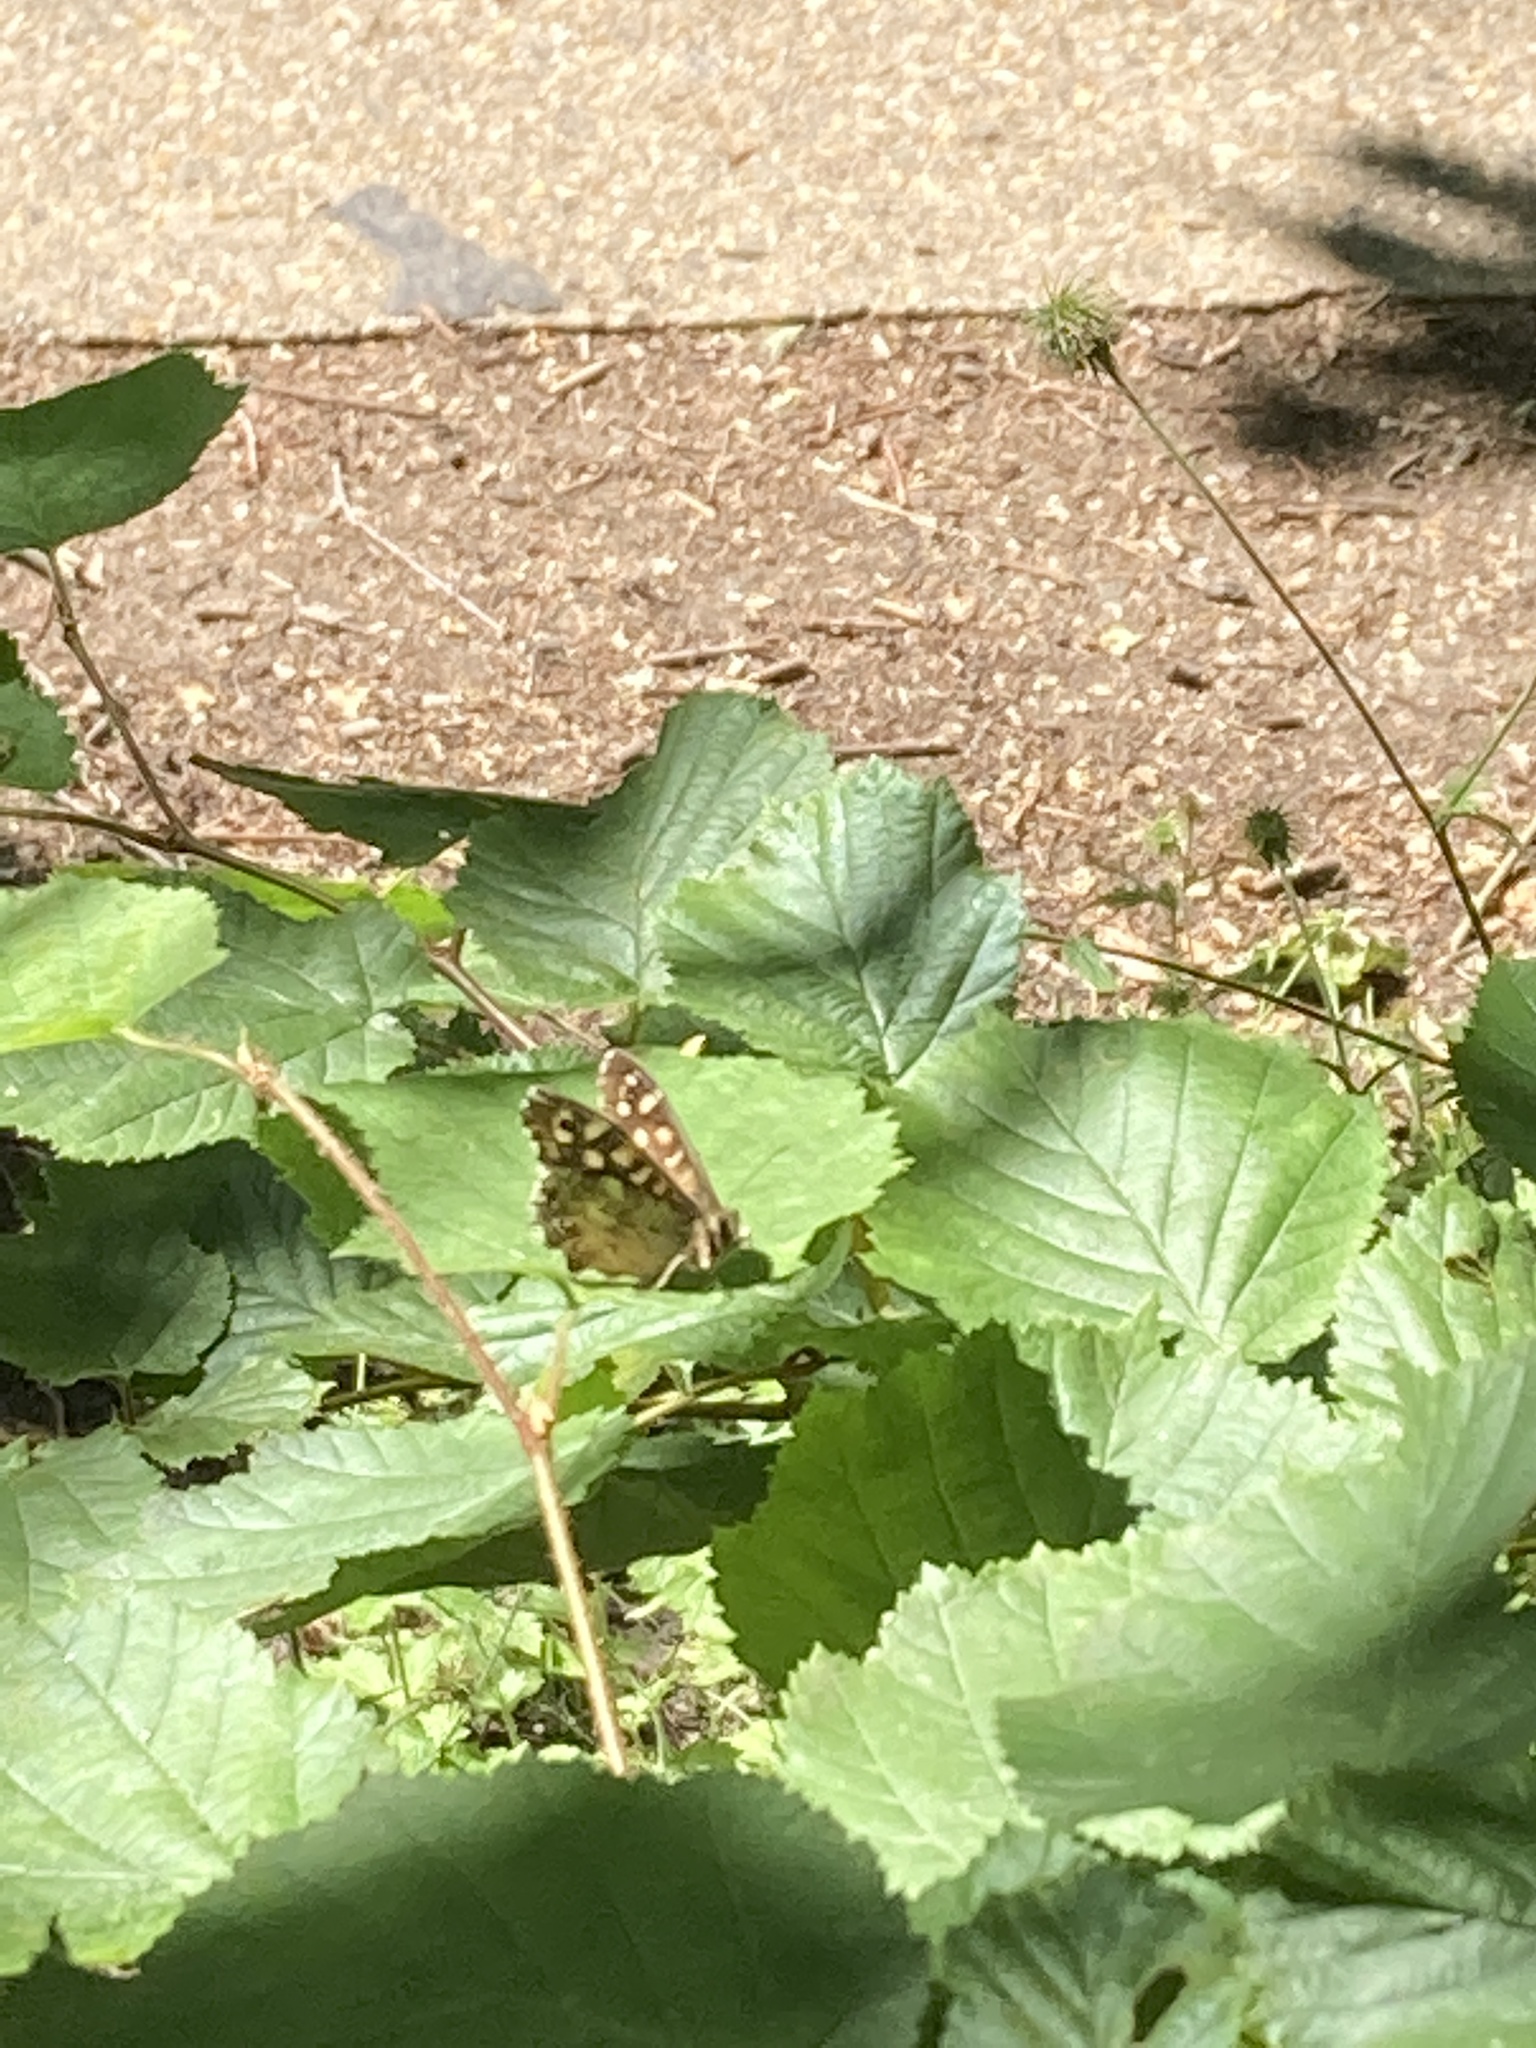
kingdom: Animalia
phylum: Arthropoda
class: Insecta
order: Lepidoptera
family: Nymphalidae
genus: Pararge
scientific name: Pararge aegeria
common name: Speckled wood
